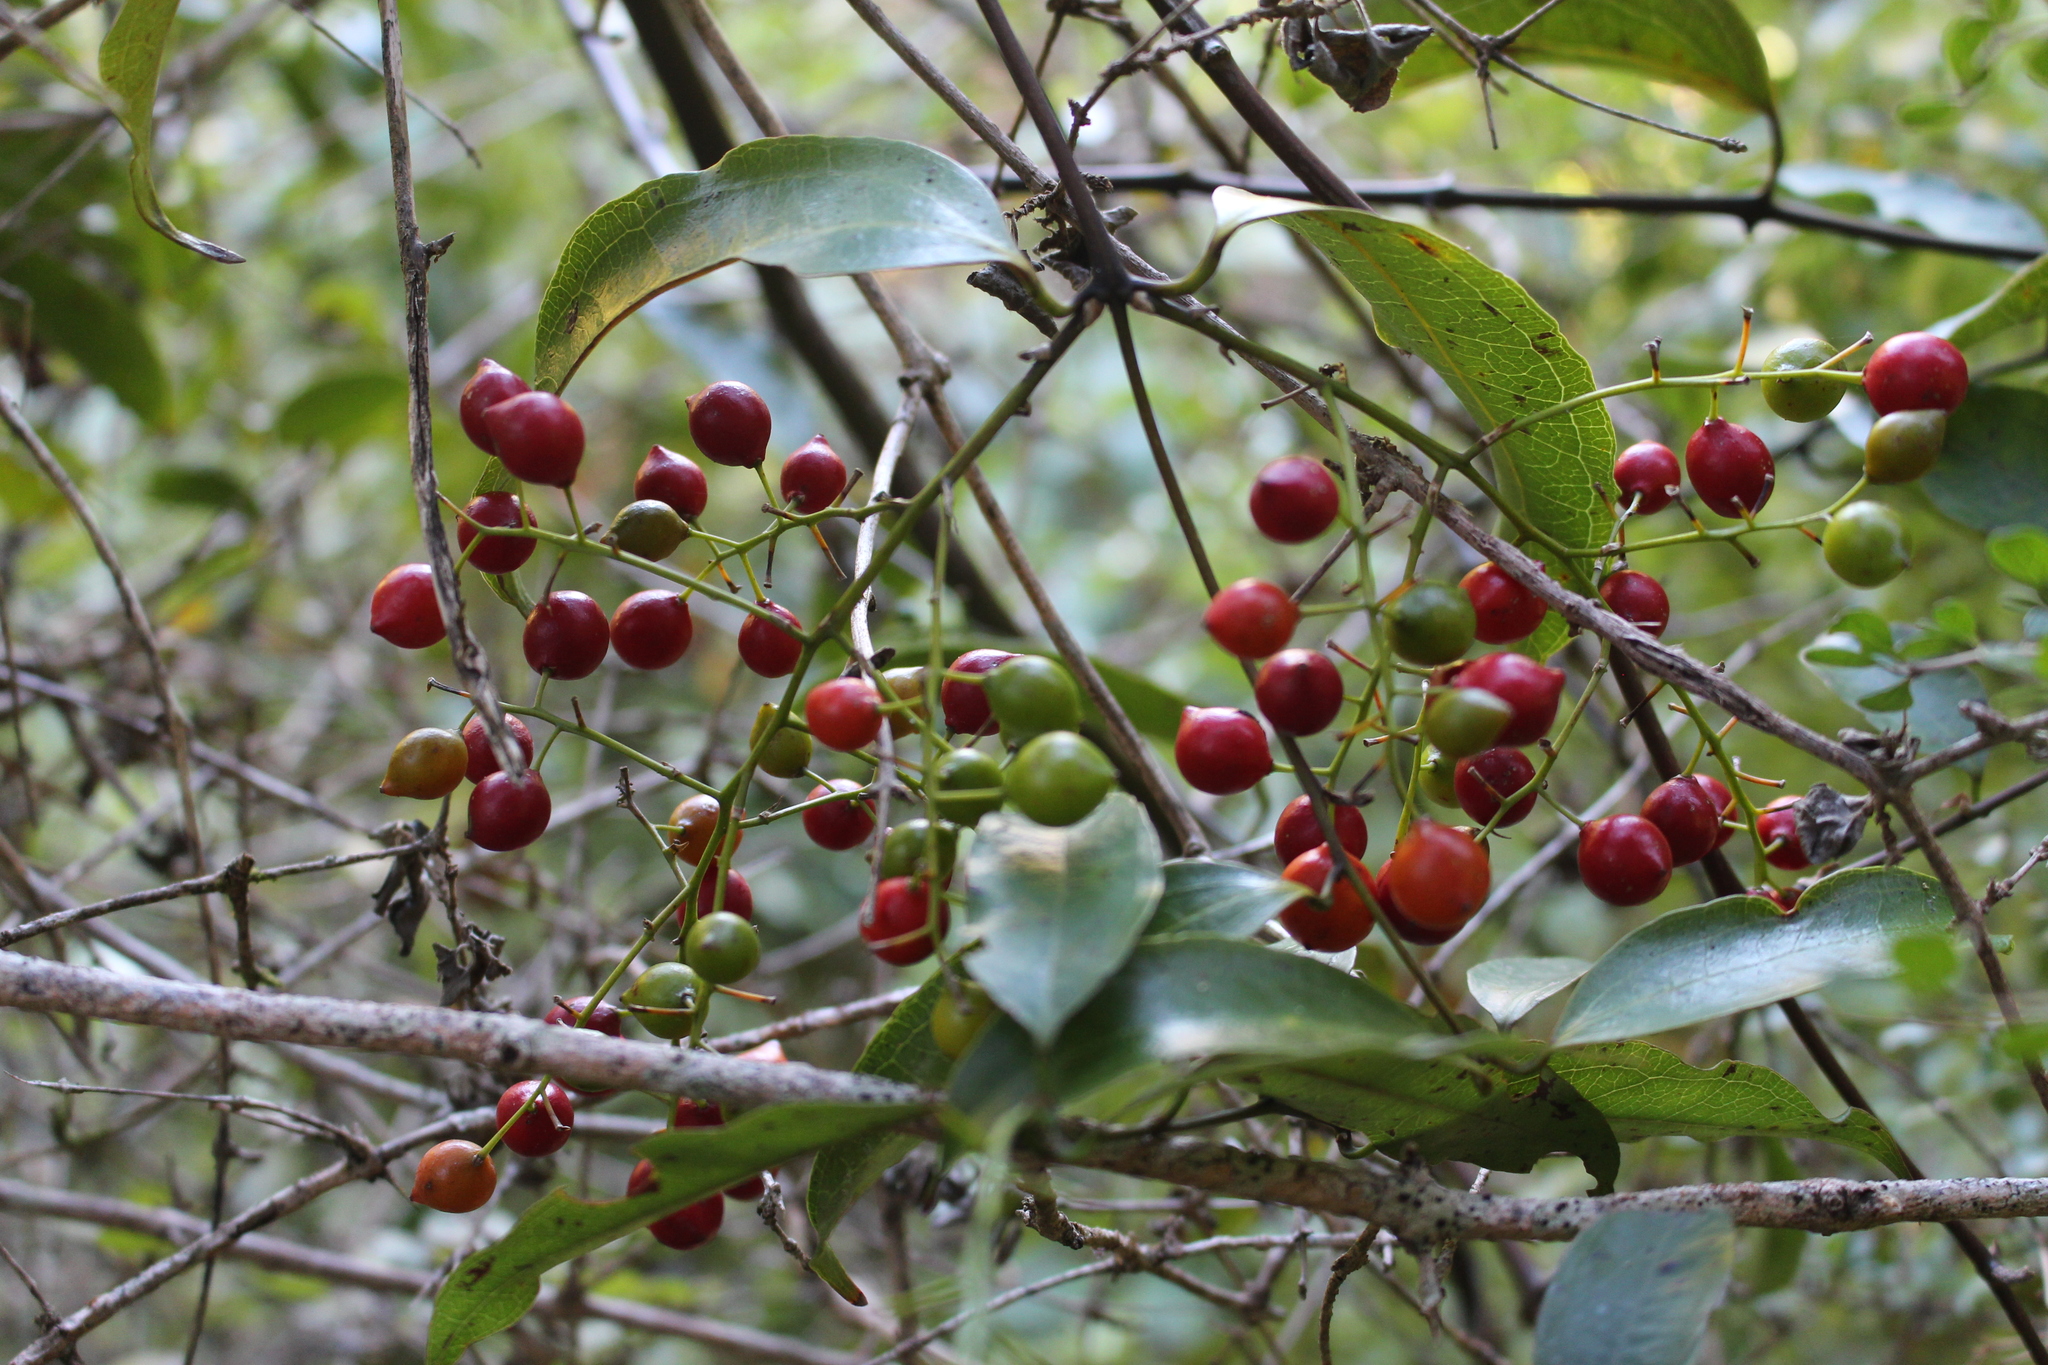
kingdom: Plantae
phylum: Tracheophyta
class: Liliopsida
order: Liliales
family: Ripogonaceae
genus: Ripogonum
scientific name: Ripogonum scandens
